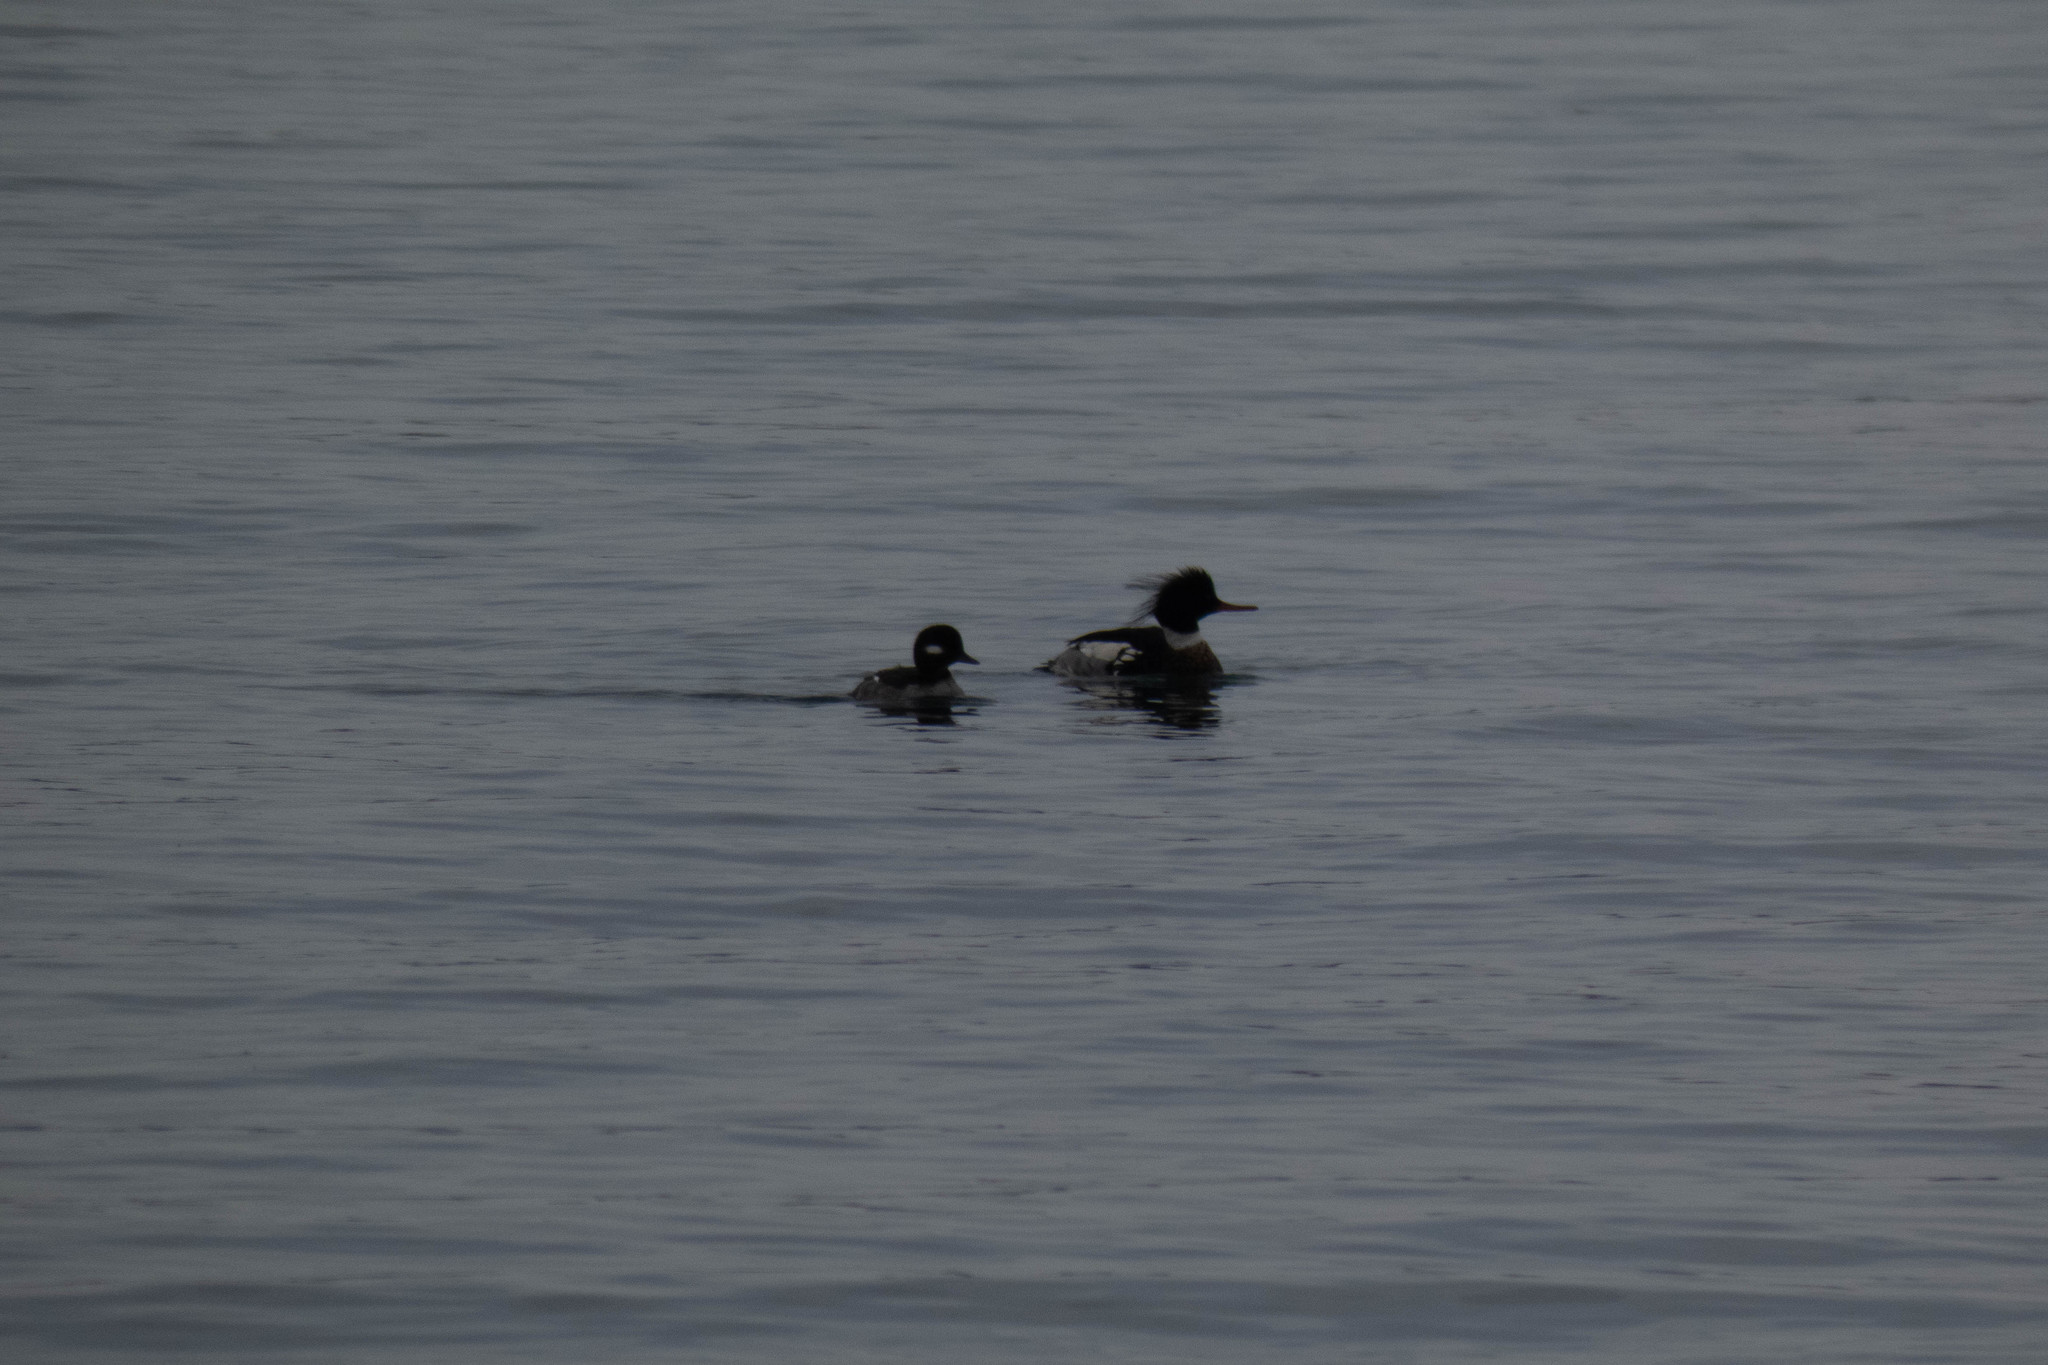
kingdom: Animalia
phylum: Chordata
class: Aves
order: Anseriformes
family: Anatidae
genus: Bucephala
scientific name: Bucephala albeola
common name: Bufflehead
